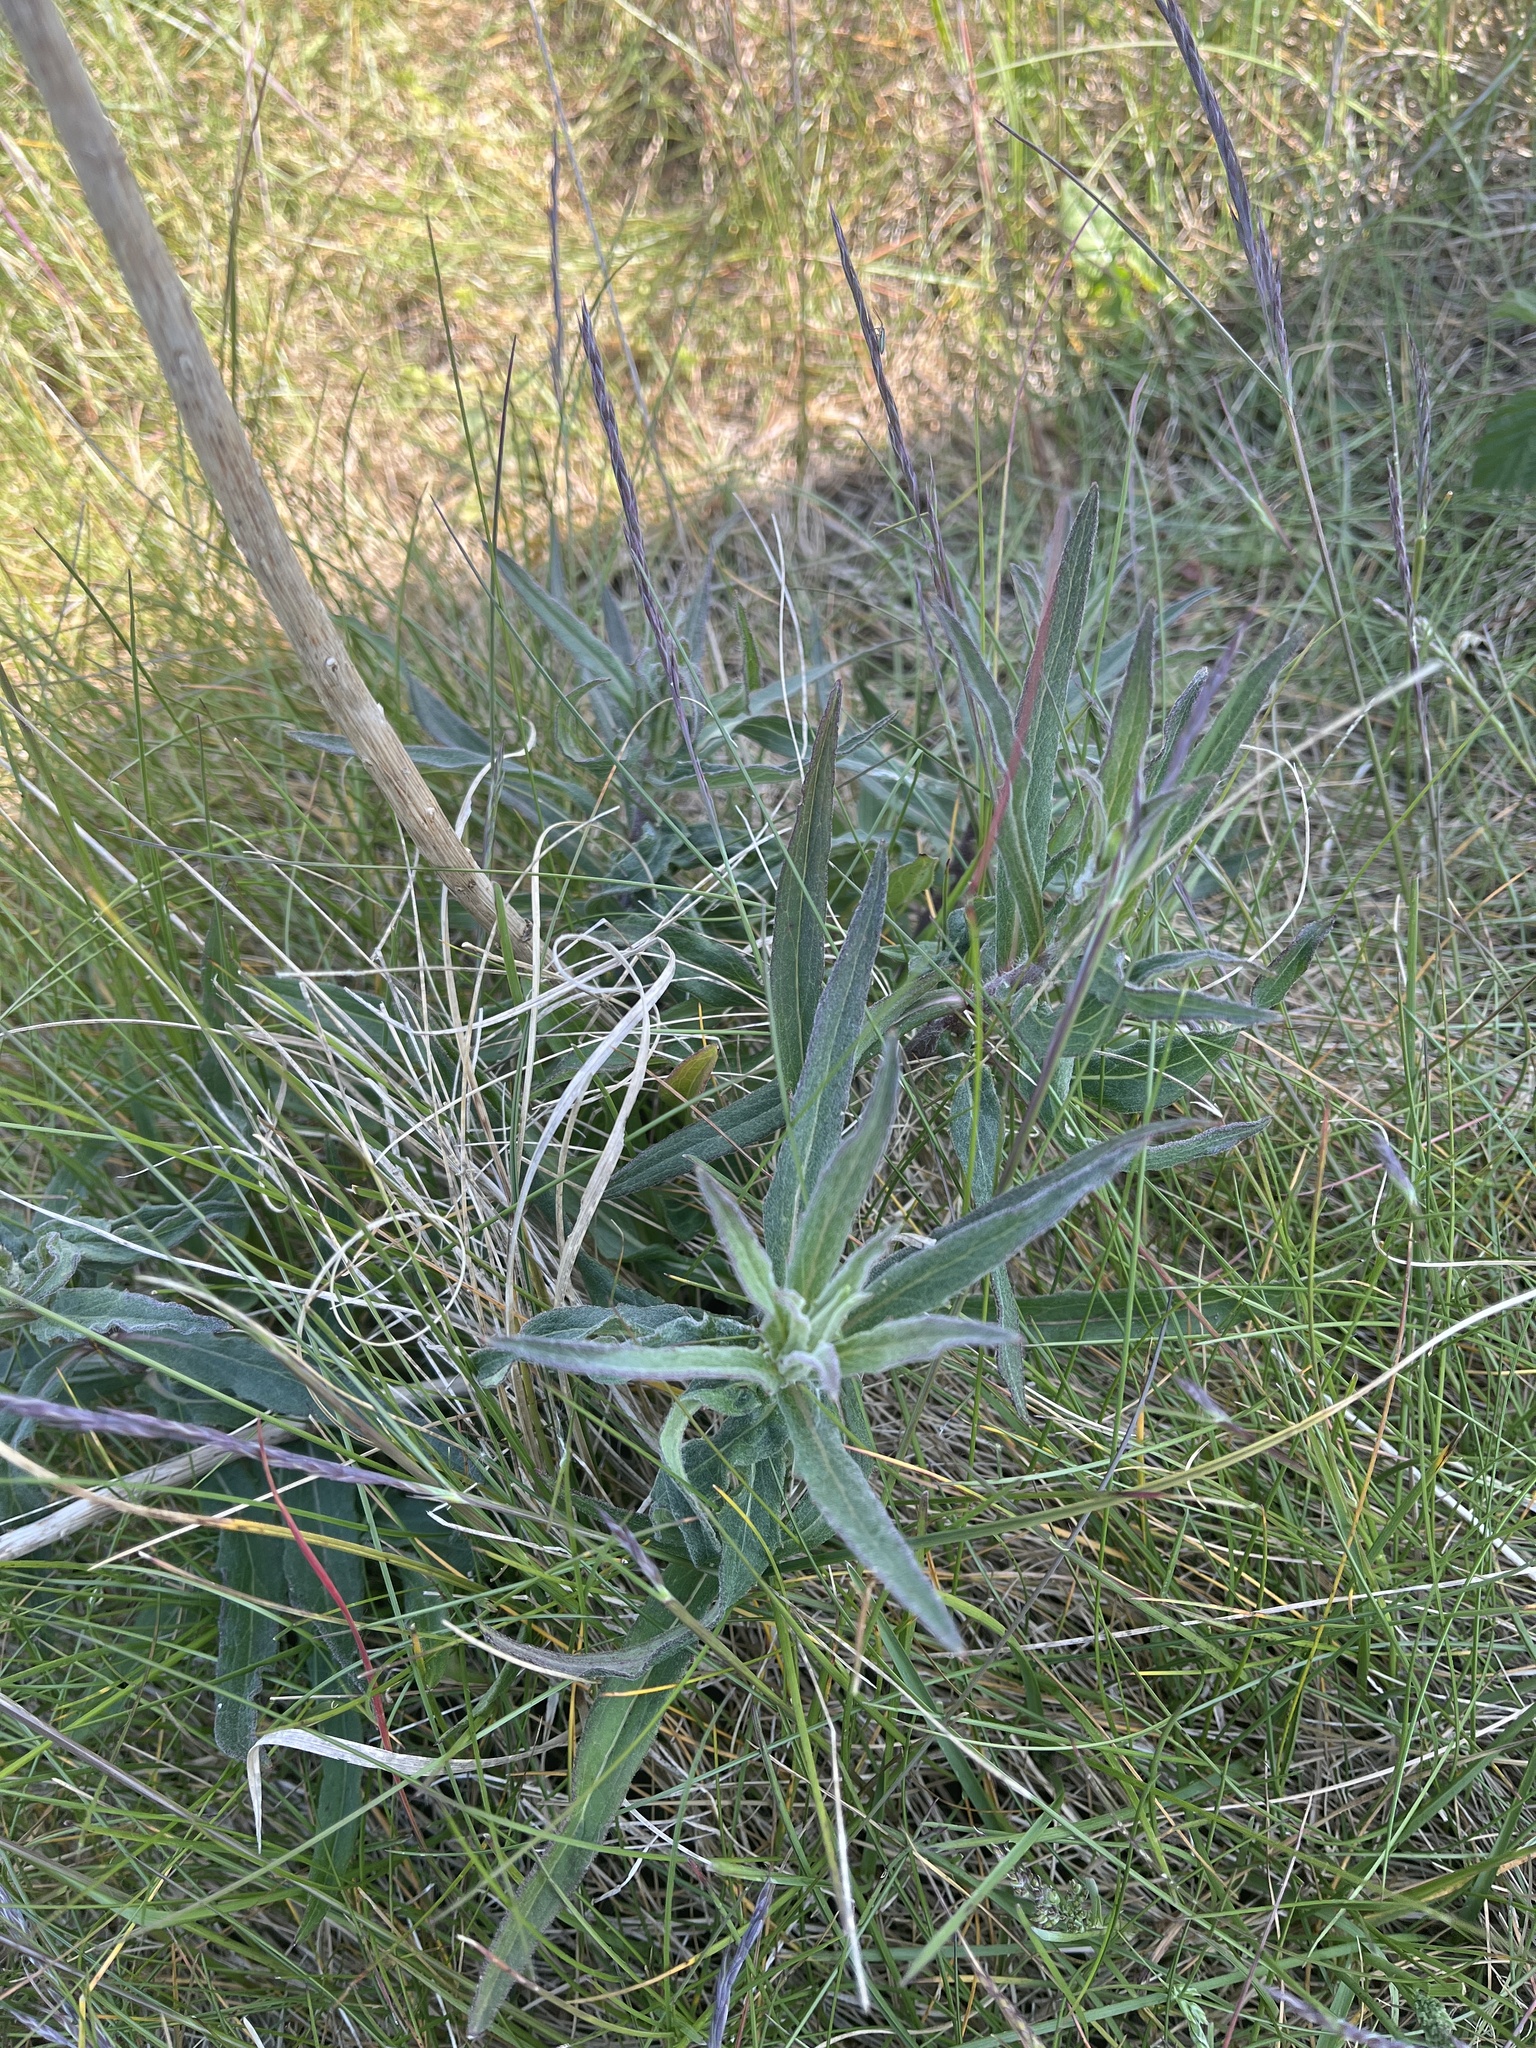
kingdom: Plantae
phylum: Tracheophyta
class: Magnoliopsida
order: Asterales
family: Asteraceae
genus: Hieracium
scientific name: Hieracium umbellatum
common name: Northern hawkweed
